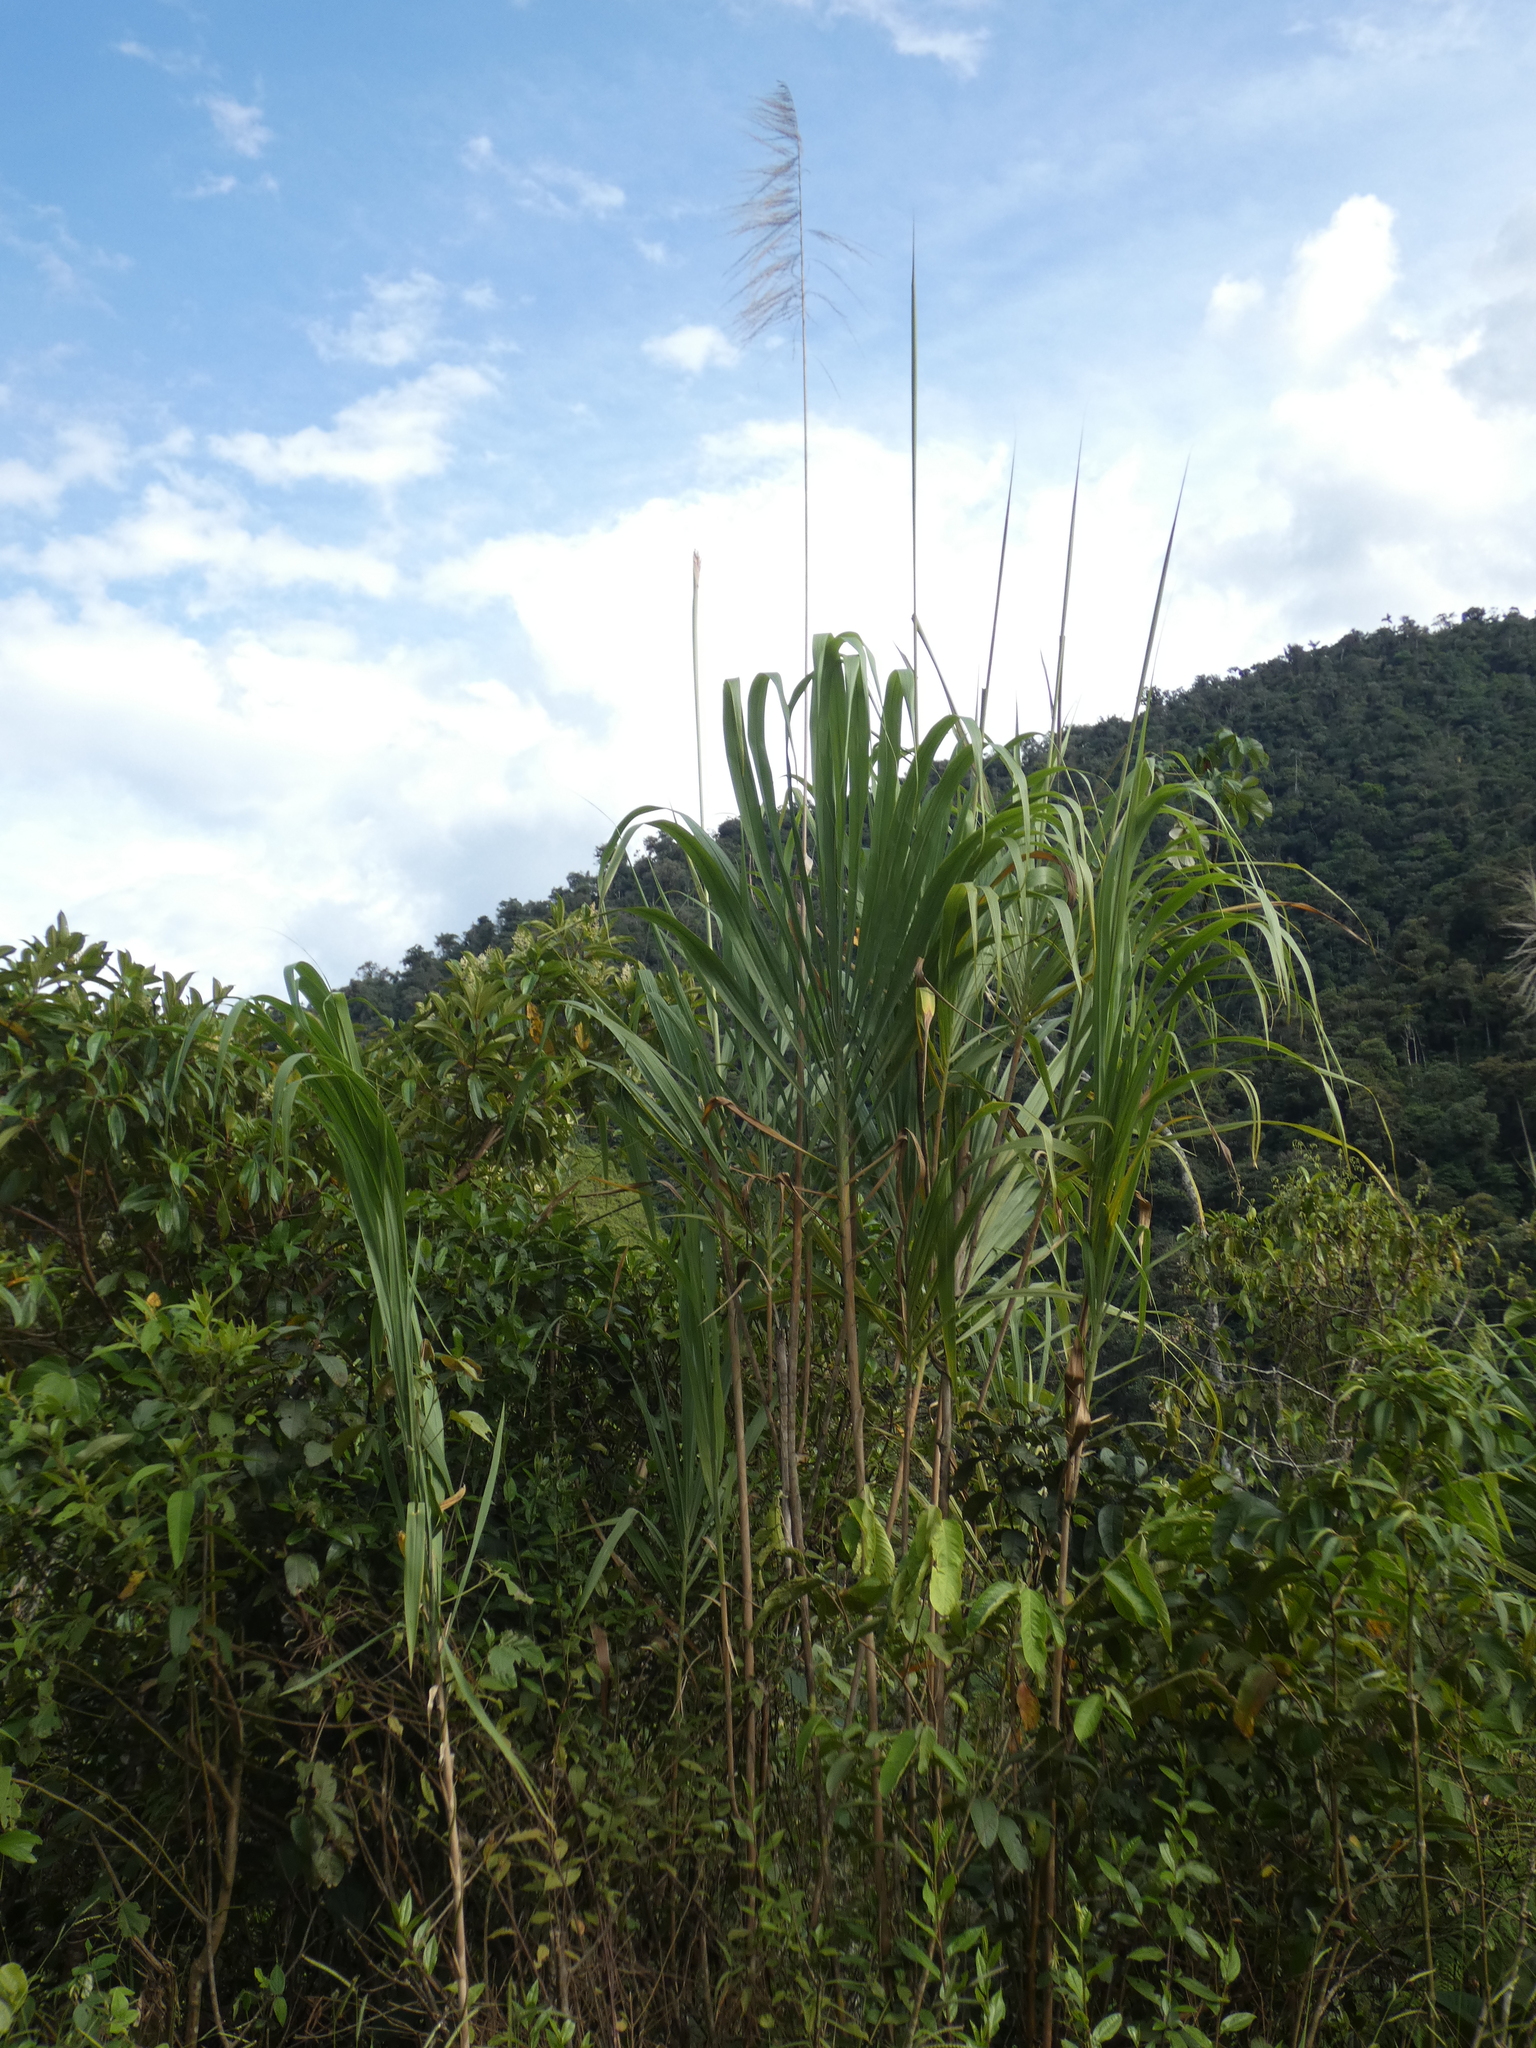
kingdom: Plantae
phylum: Tracheophyta
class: Liliopsida
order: Poales
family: Poaceae
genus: Gynerium
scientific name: Gynerium sagittatum
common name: Wild cane
